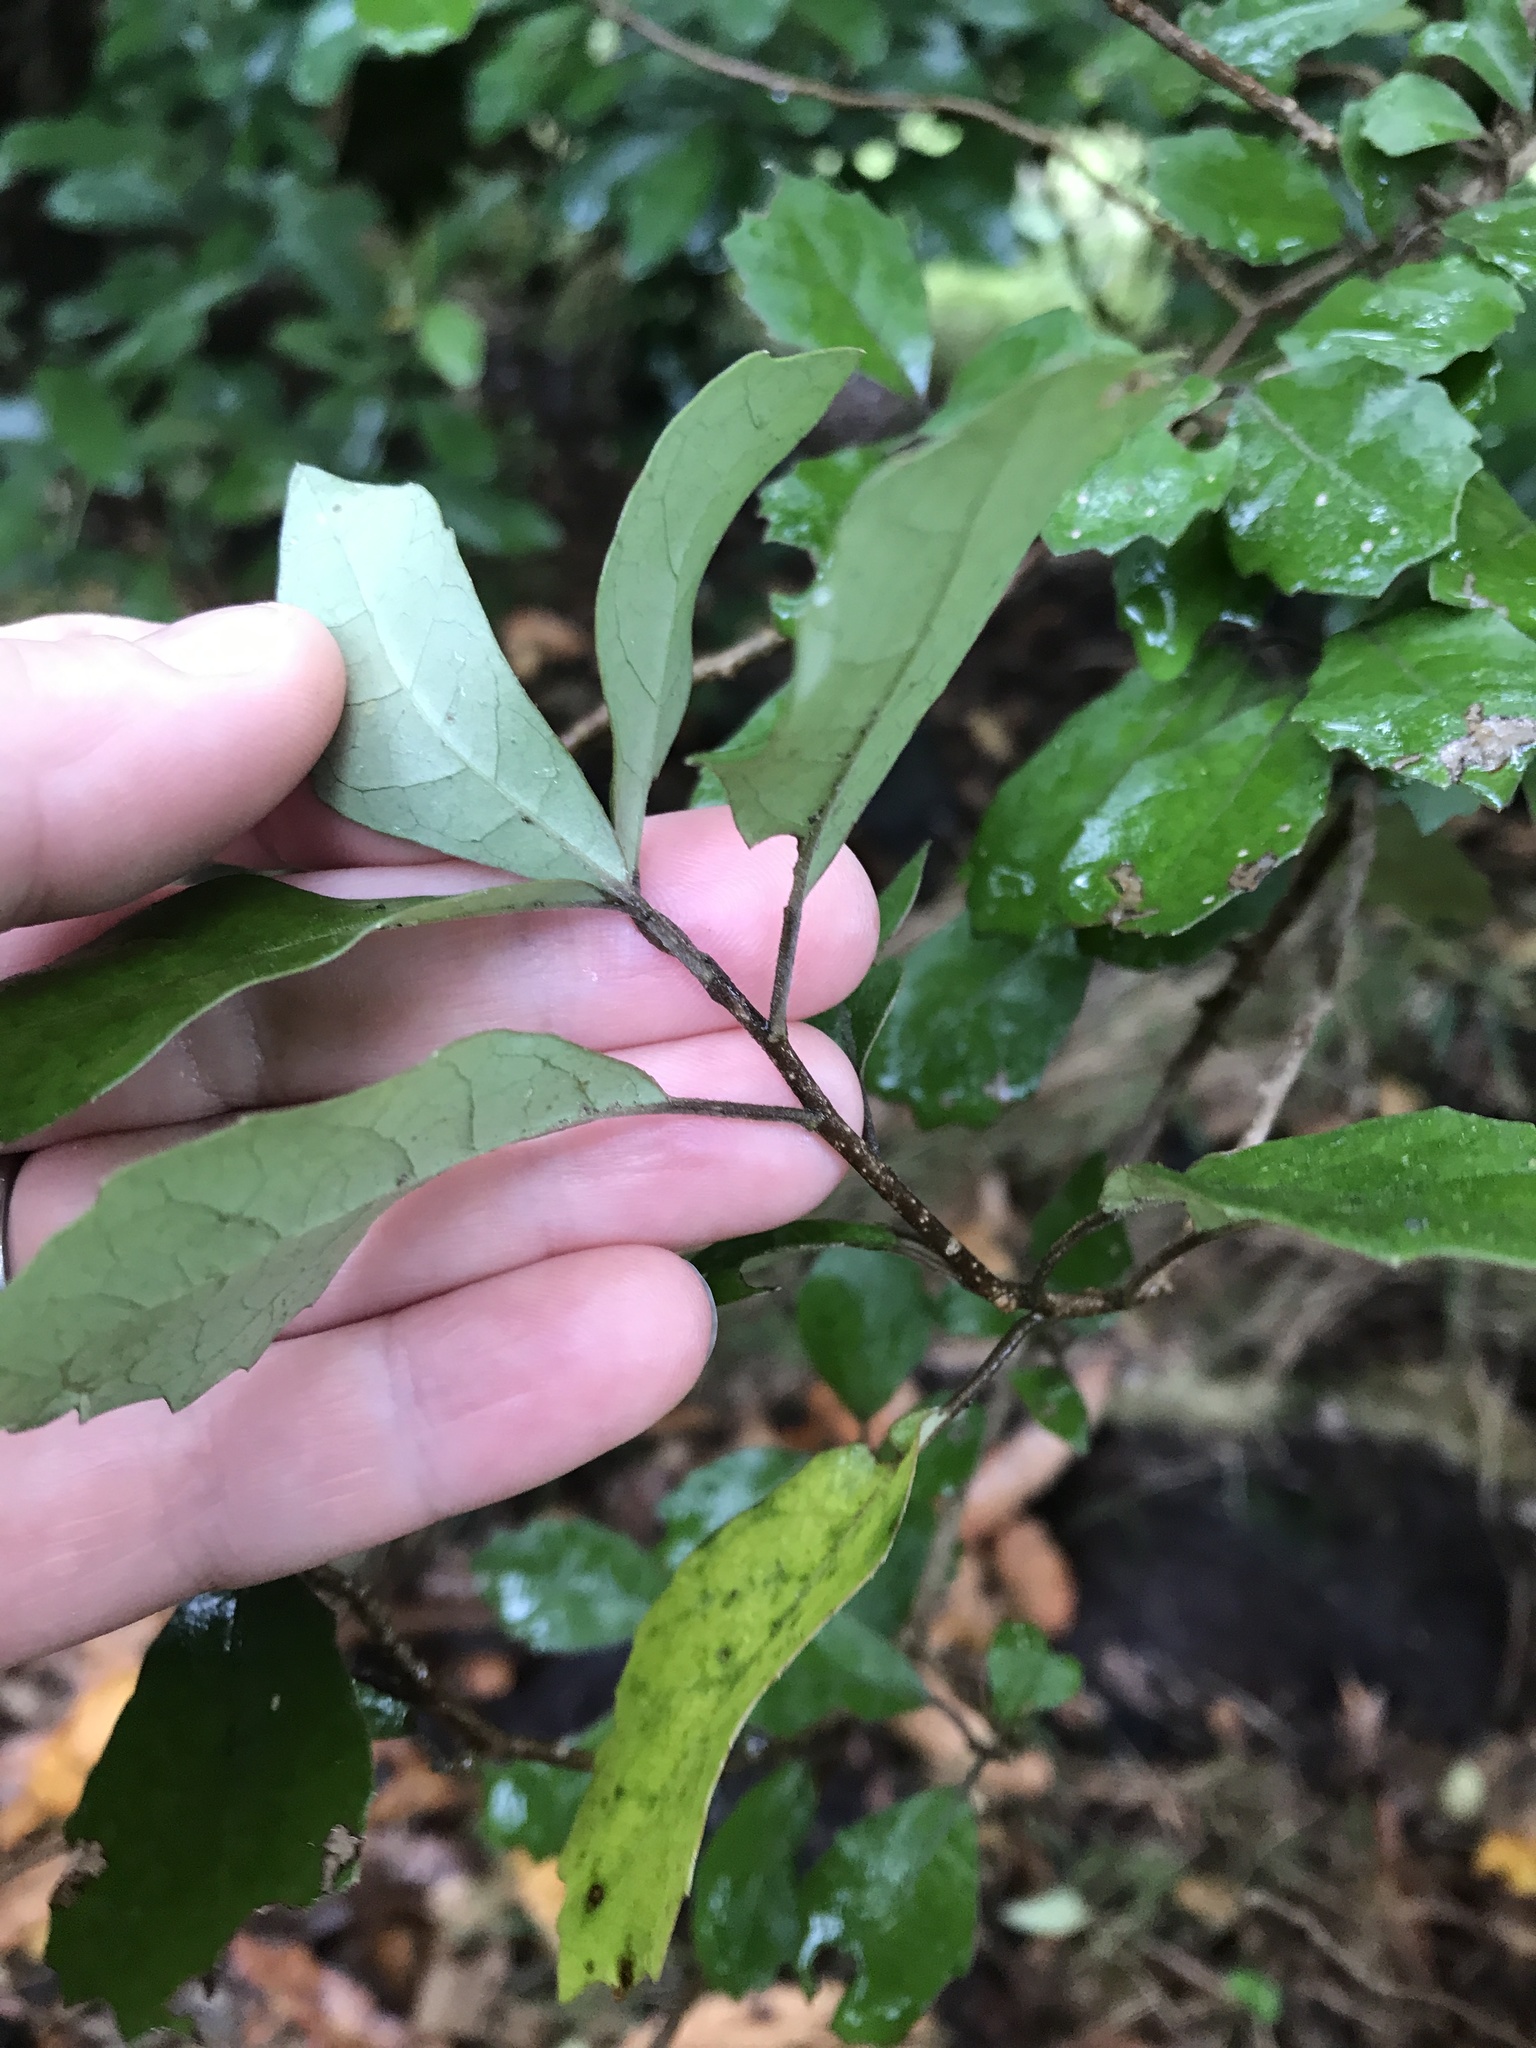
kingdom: Plantae
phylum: Tracheophyta
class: Magnoliopsida
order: Apiales
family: Pennantiaceae
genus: Pennantia
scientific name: Pennantia corymbosa
